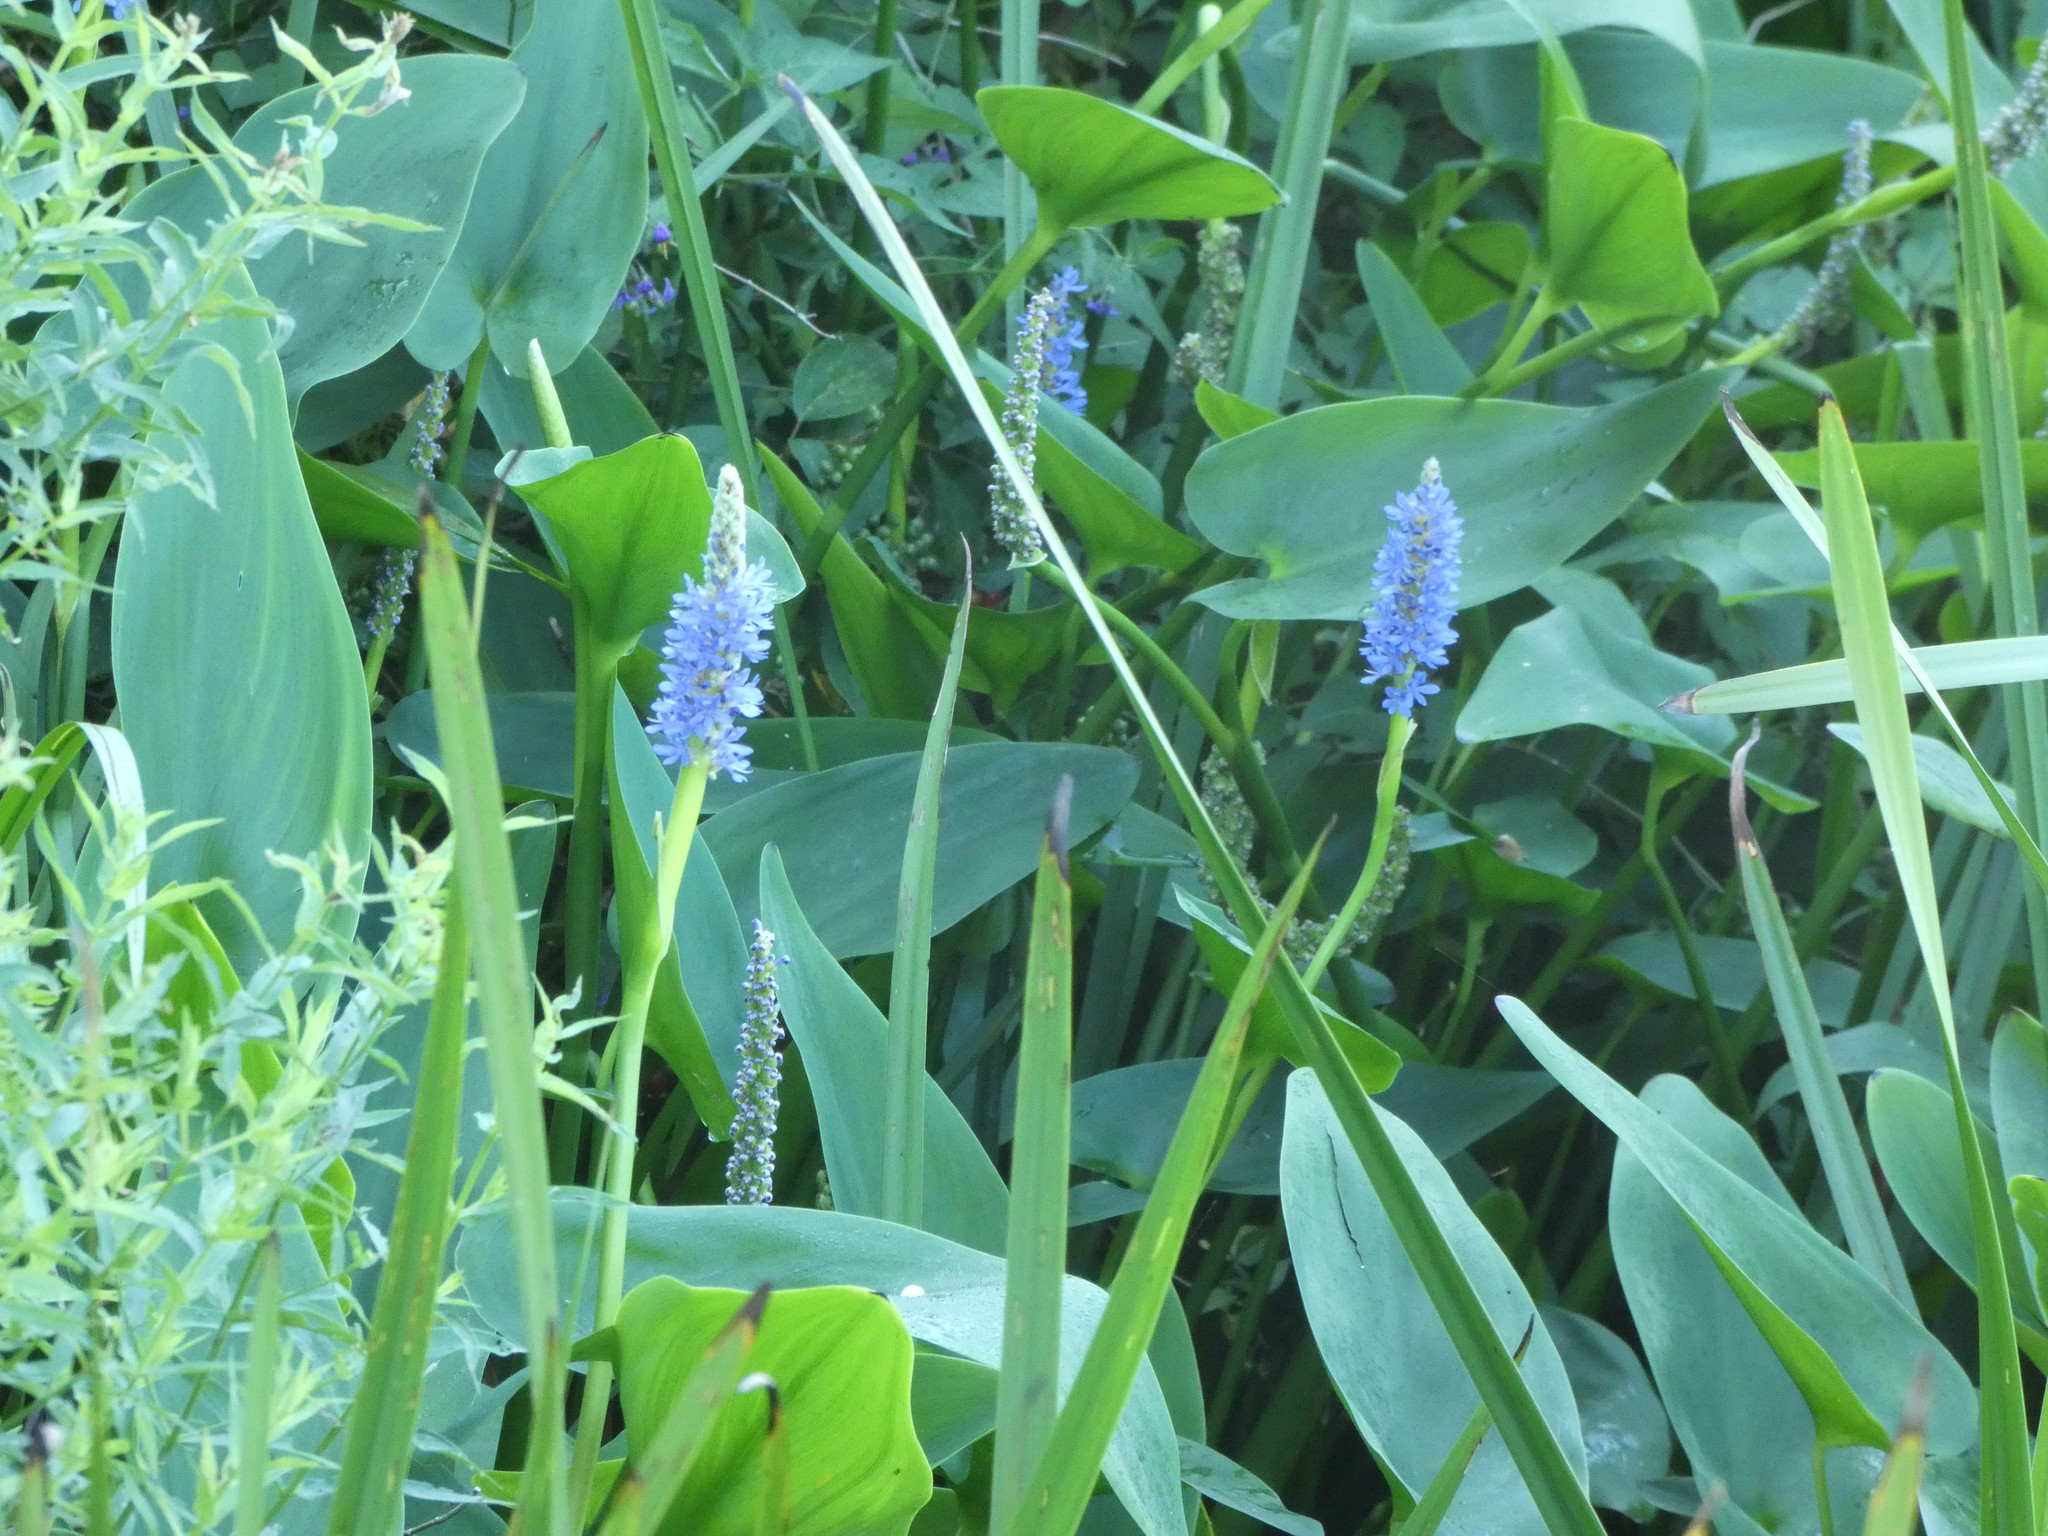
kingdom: Plantae
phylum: Tracheophyta
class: Liliopsida
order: Commelinales
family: Pontederiaceae
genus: Pontederia
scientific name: Pontederia cordata
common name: Pickerelweed
